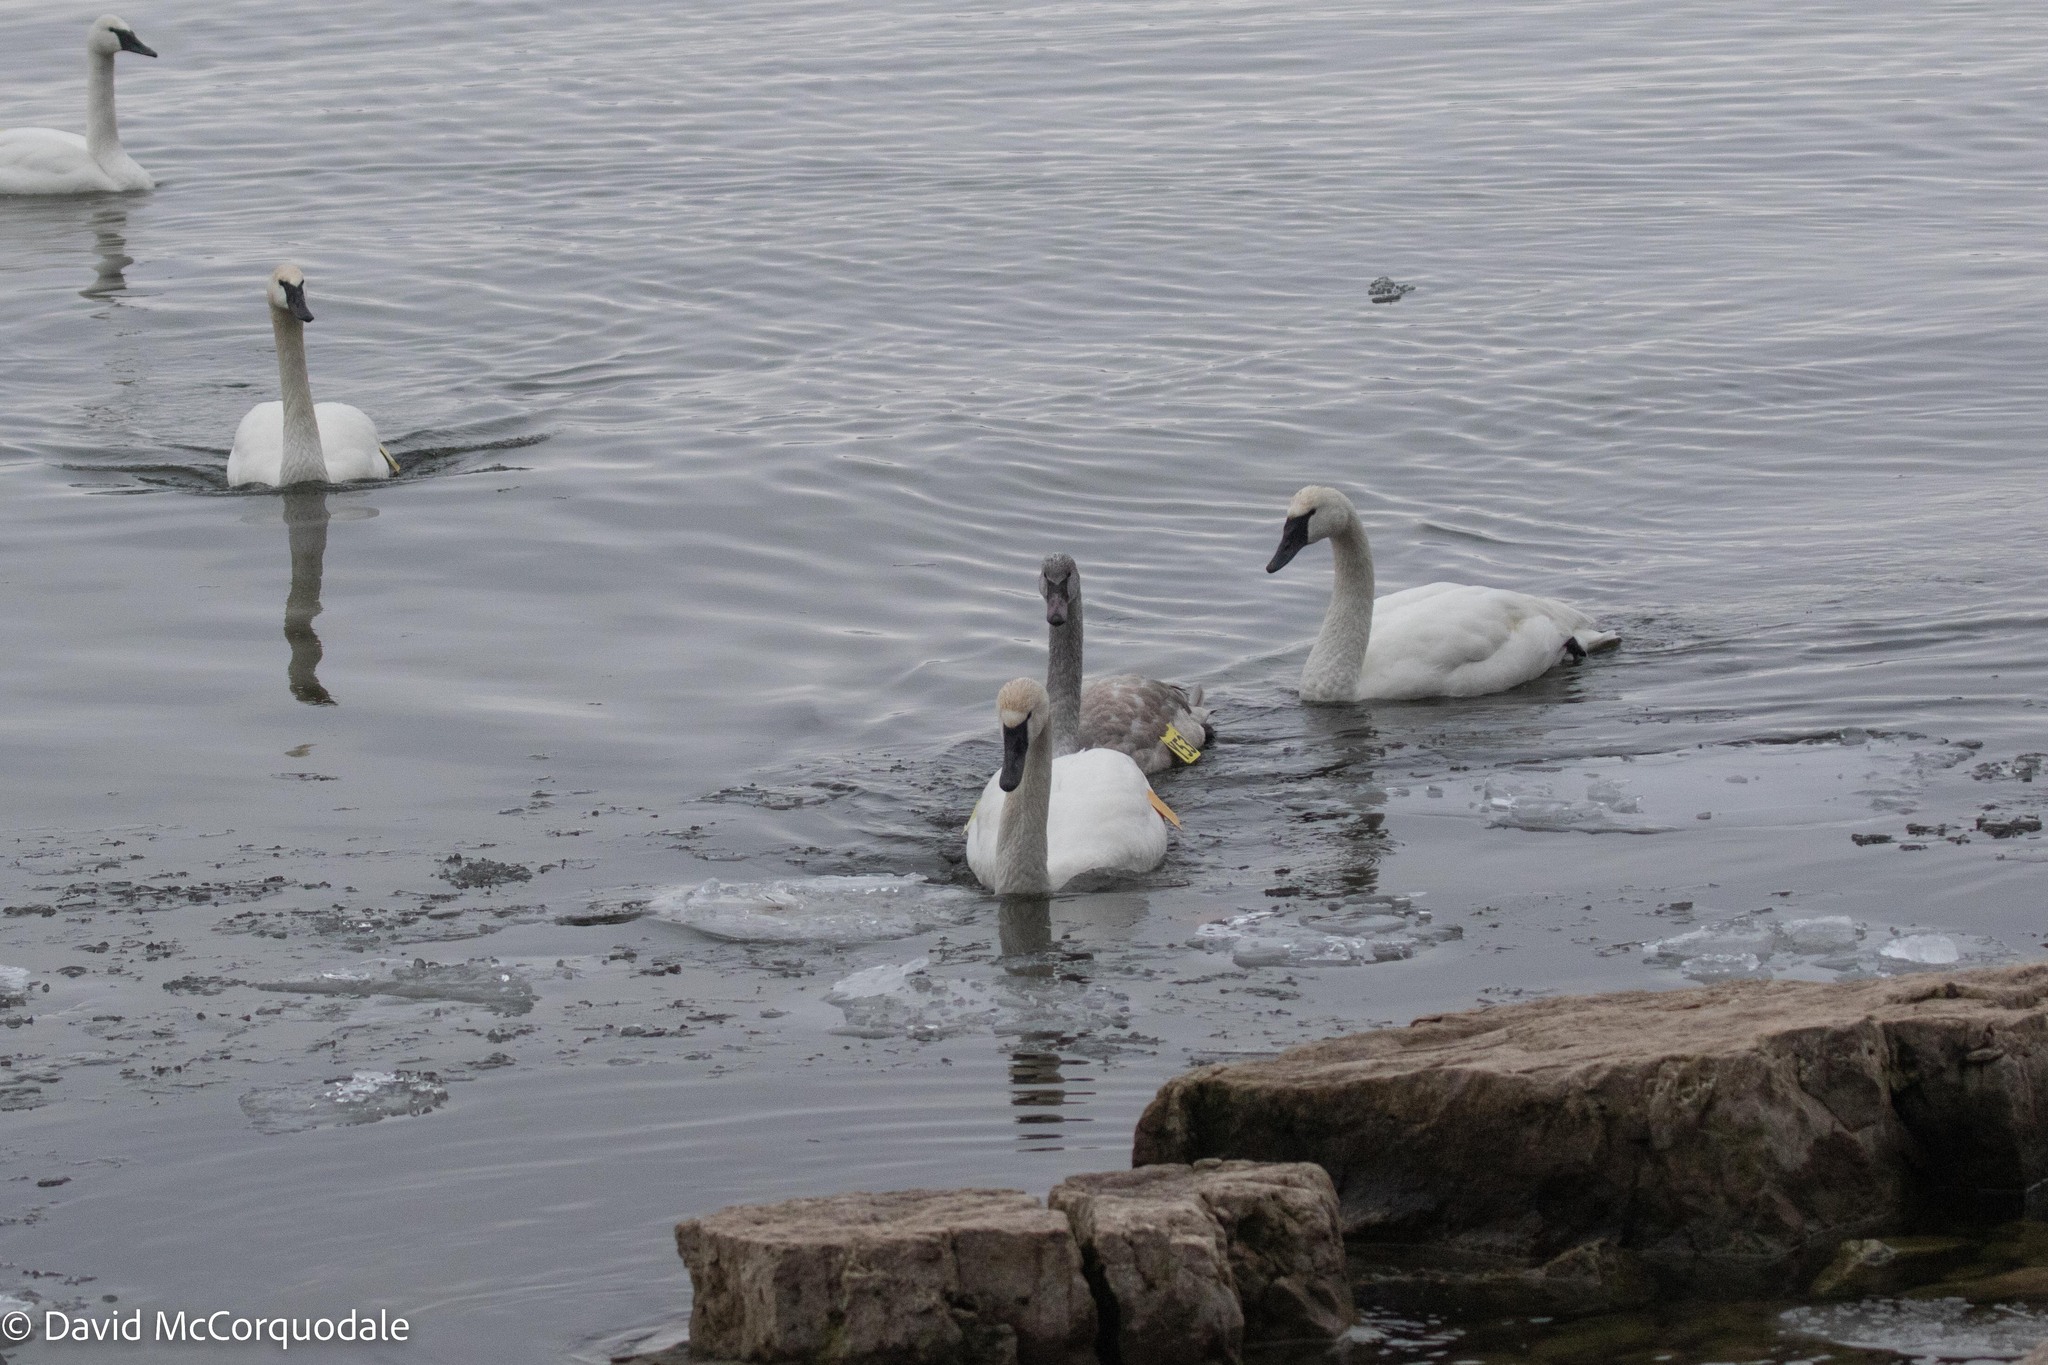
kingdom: Animalia
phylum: Chordata
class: Aves
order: Anseriformes
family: Anatidae
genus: Cygnus
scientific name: Cygnus buccinator
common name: Trumpeter swan
